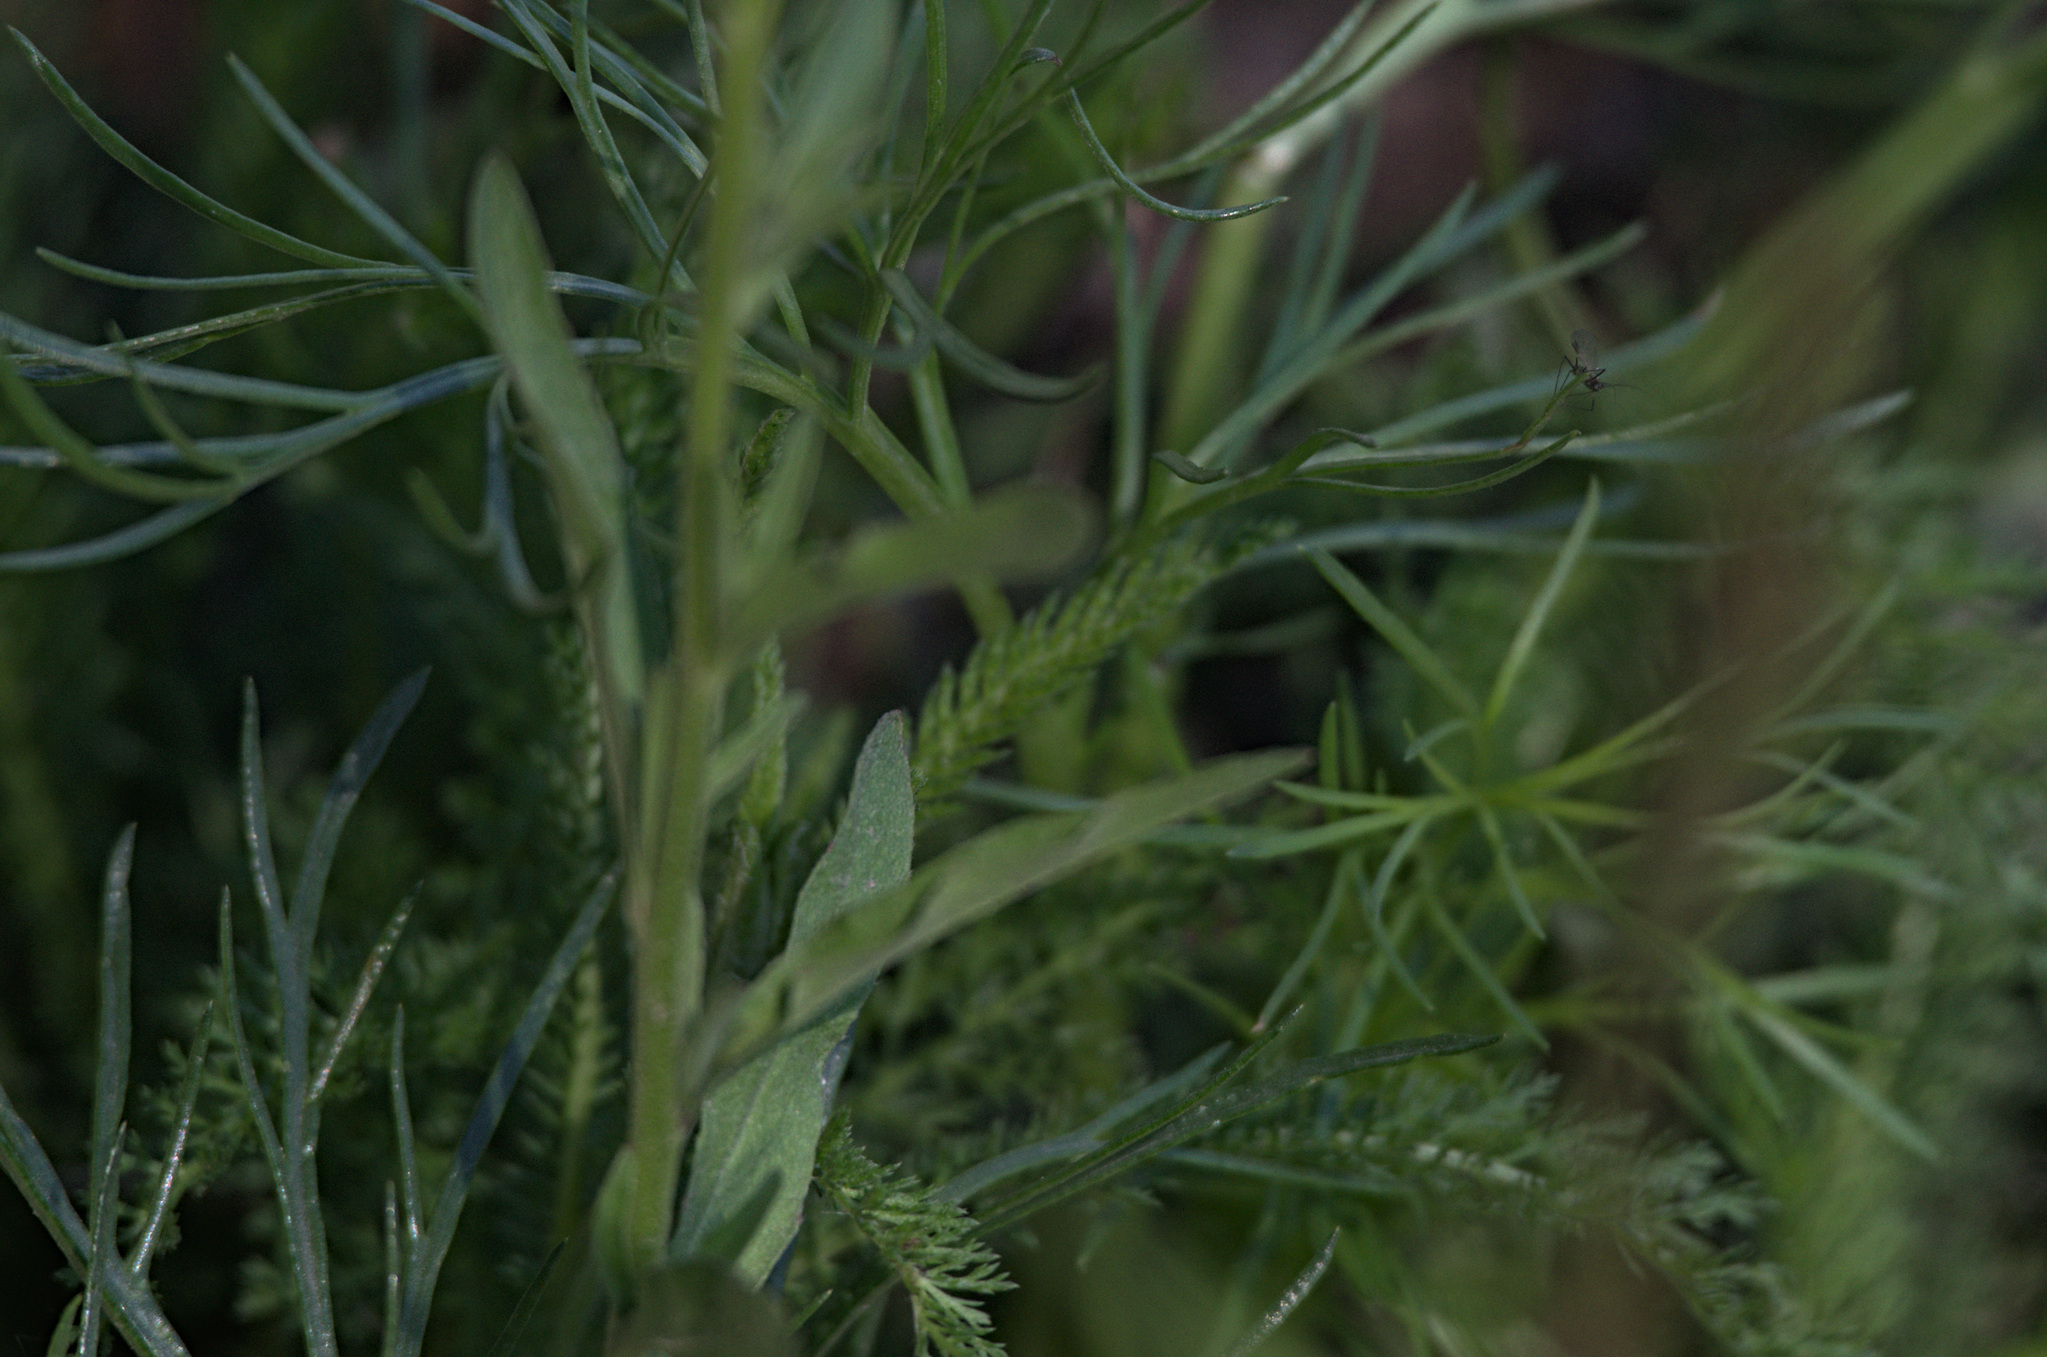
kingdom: Plantae
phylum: Tracheophyta
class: Magnoliopsida
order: Brassicales
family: Brassicaceae
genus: Berteroa
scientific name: Berteroa incana
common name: Hoary alison
